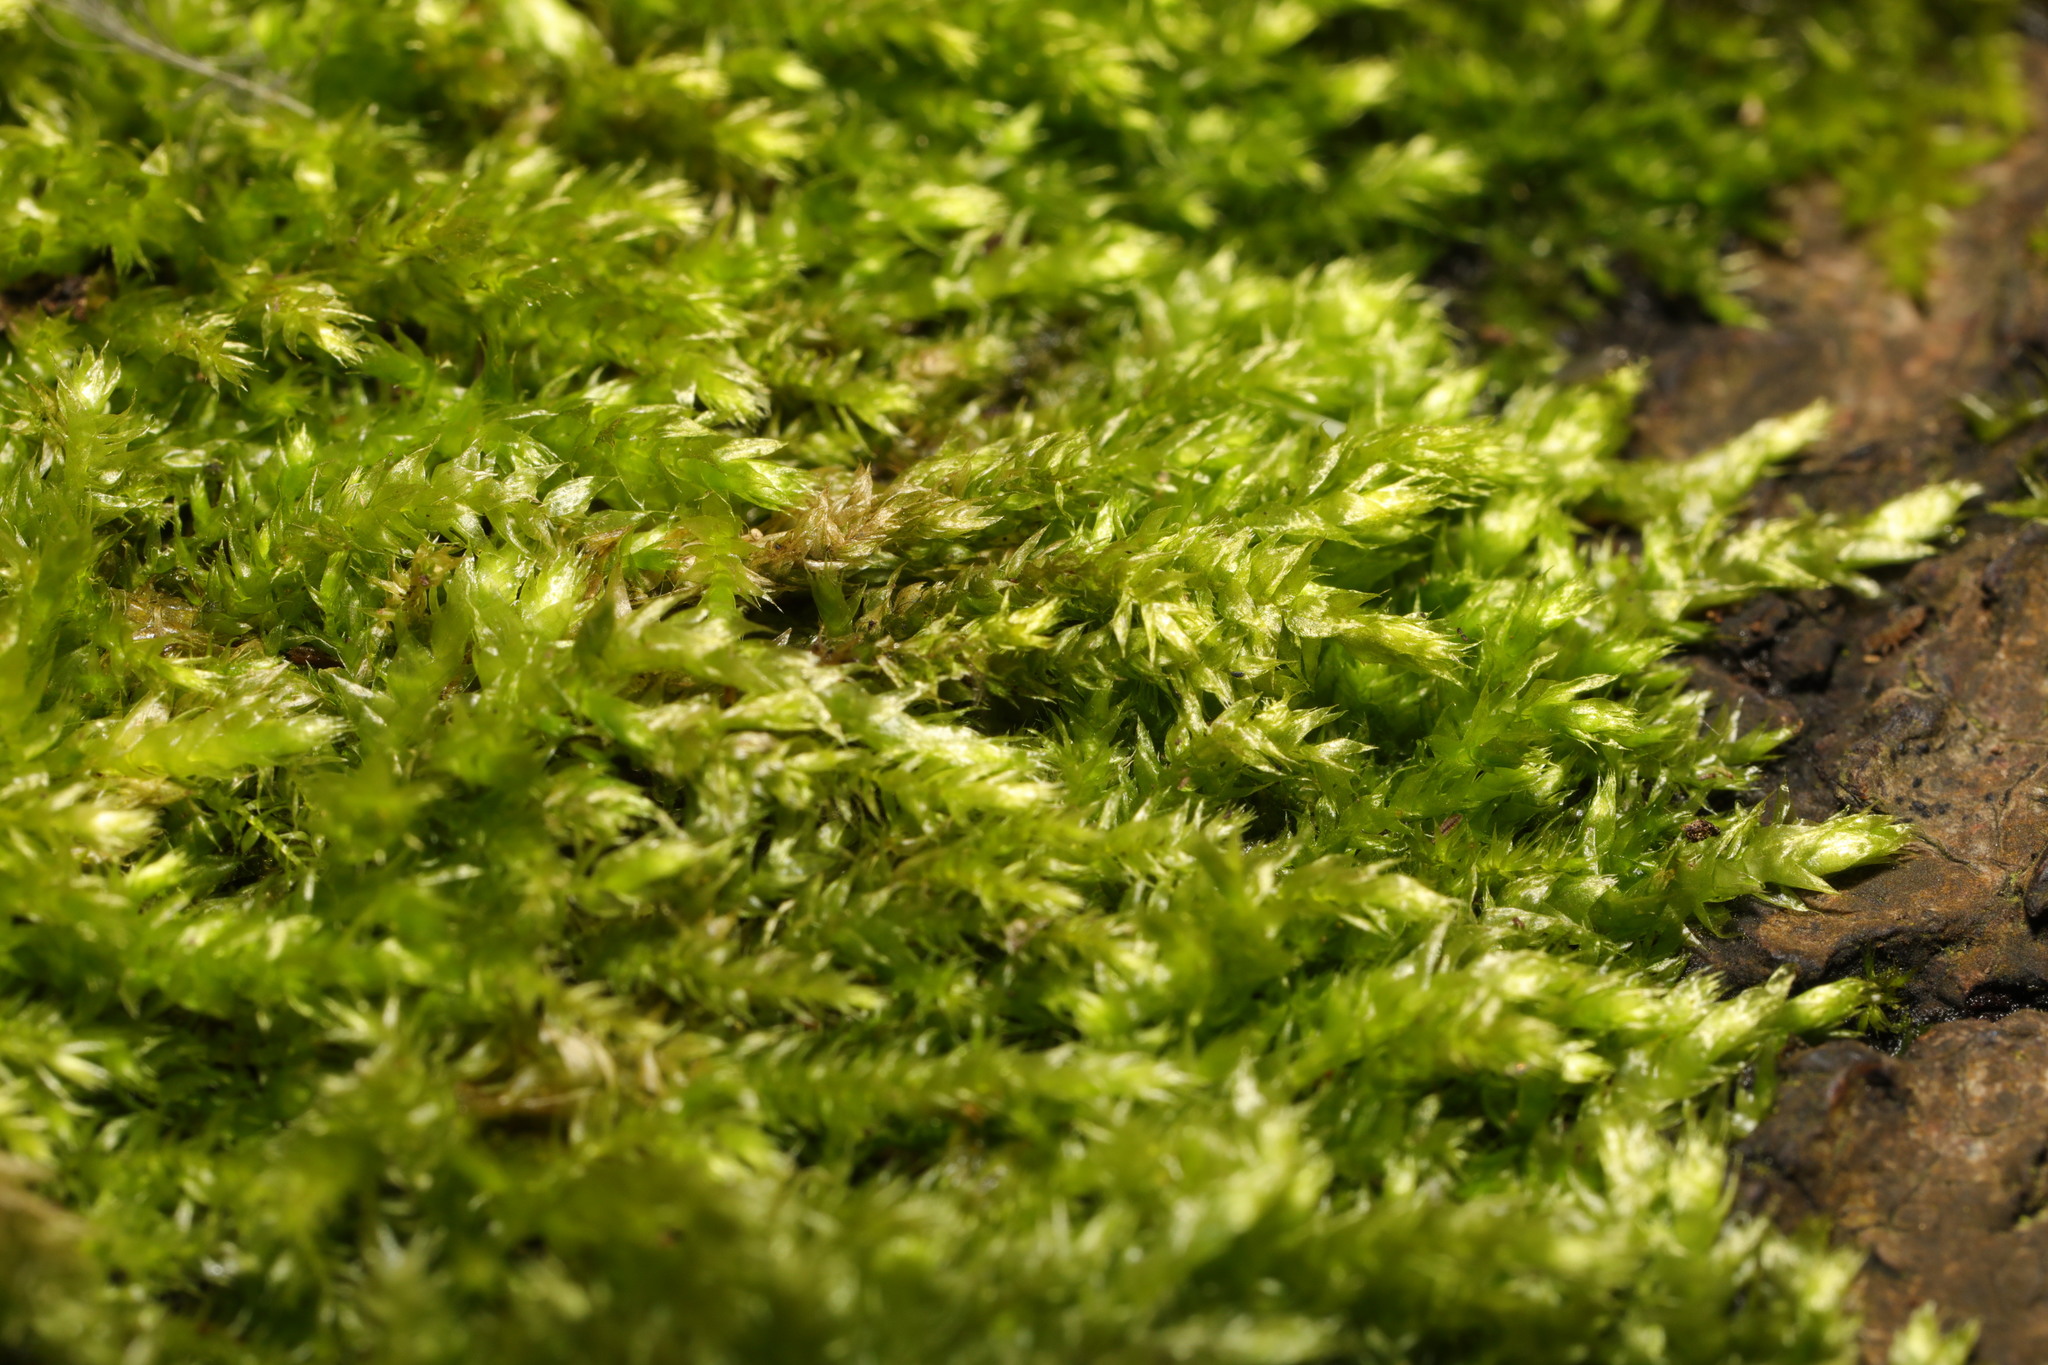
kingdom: Plantae
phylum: Bryophyta
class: Bryopsida
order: Hypnales
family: Brachytheciaceae
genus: Brachythecium
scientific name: Brachythecium rutabulum
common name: Rough-stalked feather-moss
